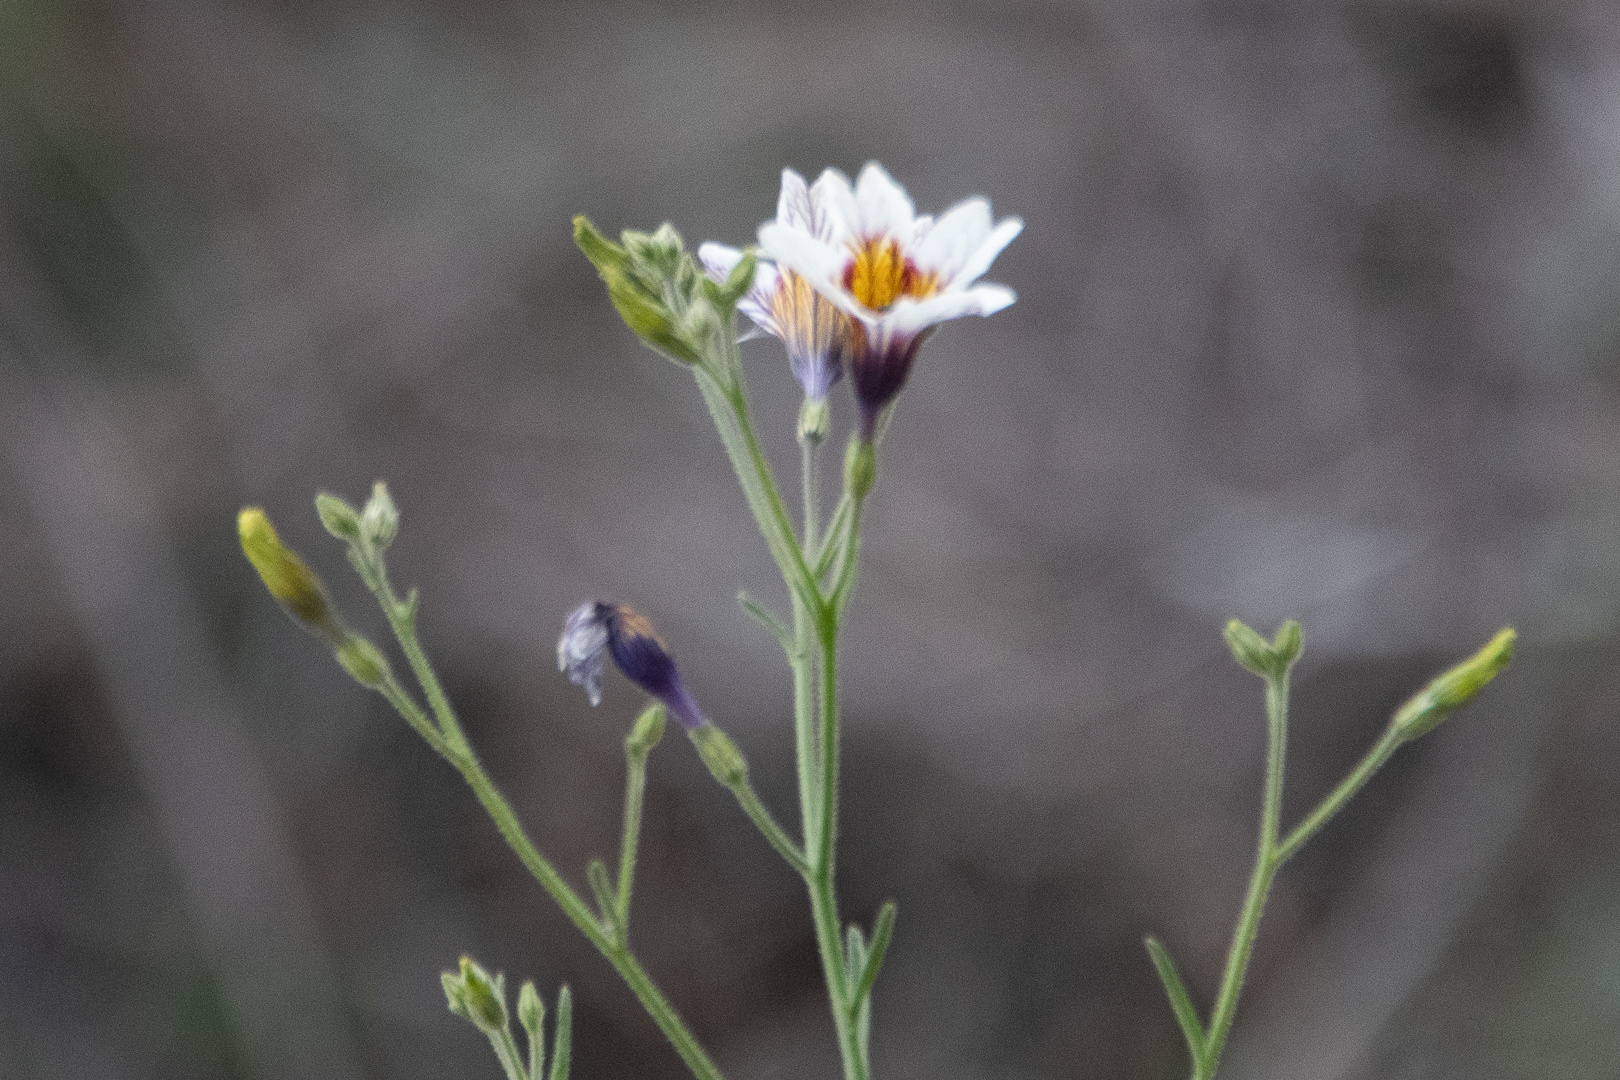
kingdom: Plantae
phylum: Tracheophyta
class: Magnoliopsida
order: Solanales
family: Solanaceae
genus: Salpiglossis
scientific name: Salpiglossis sinuata
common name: Painted-tongue
